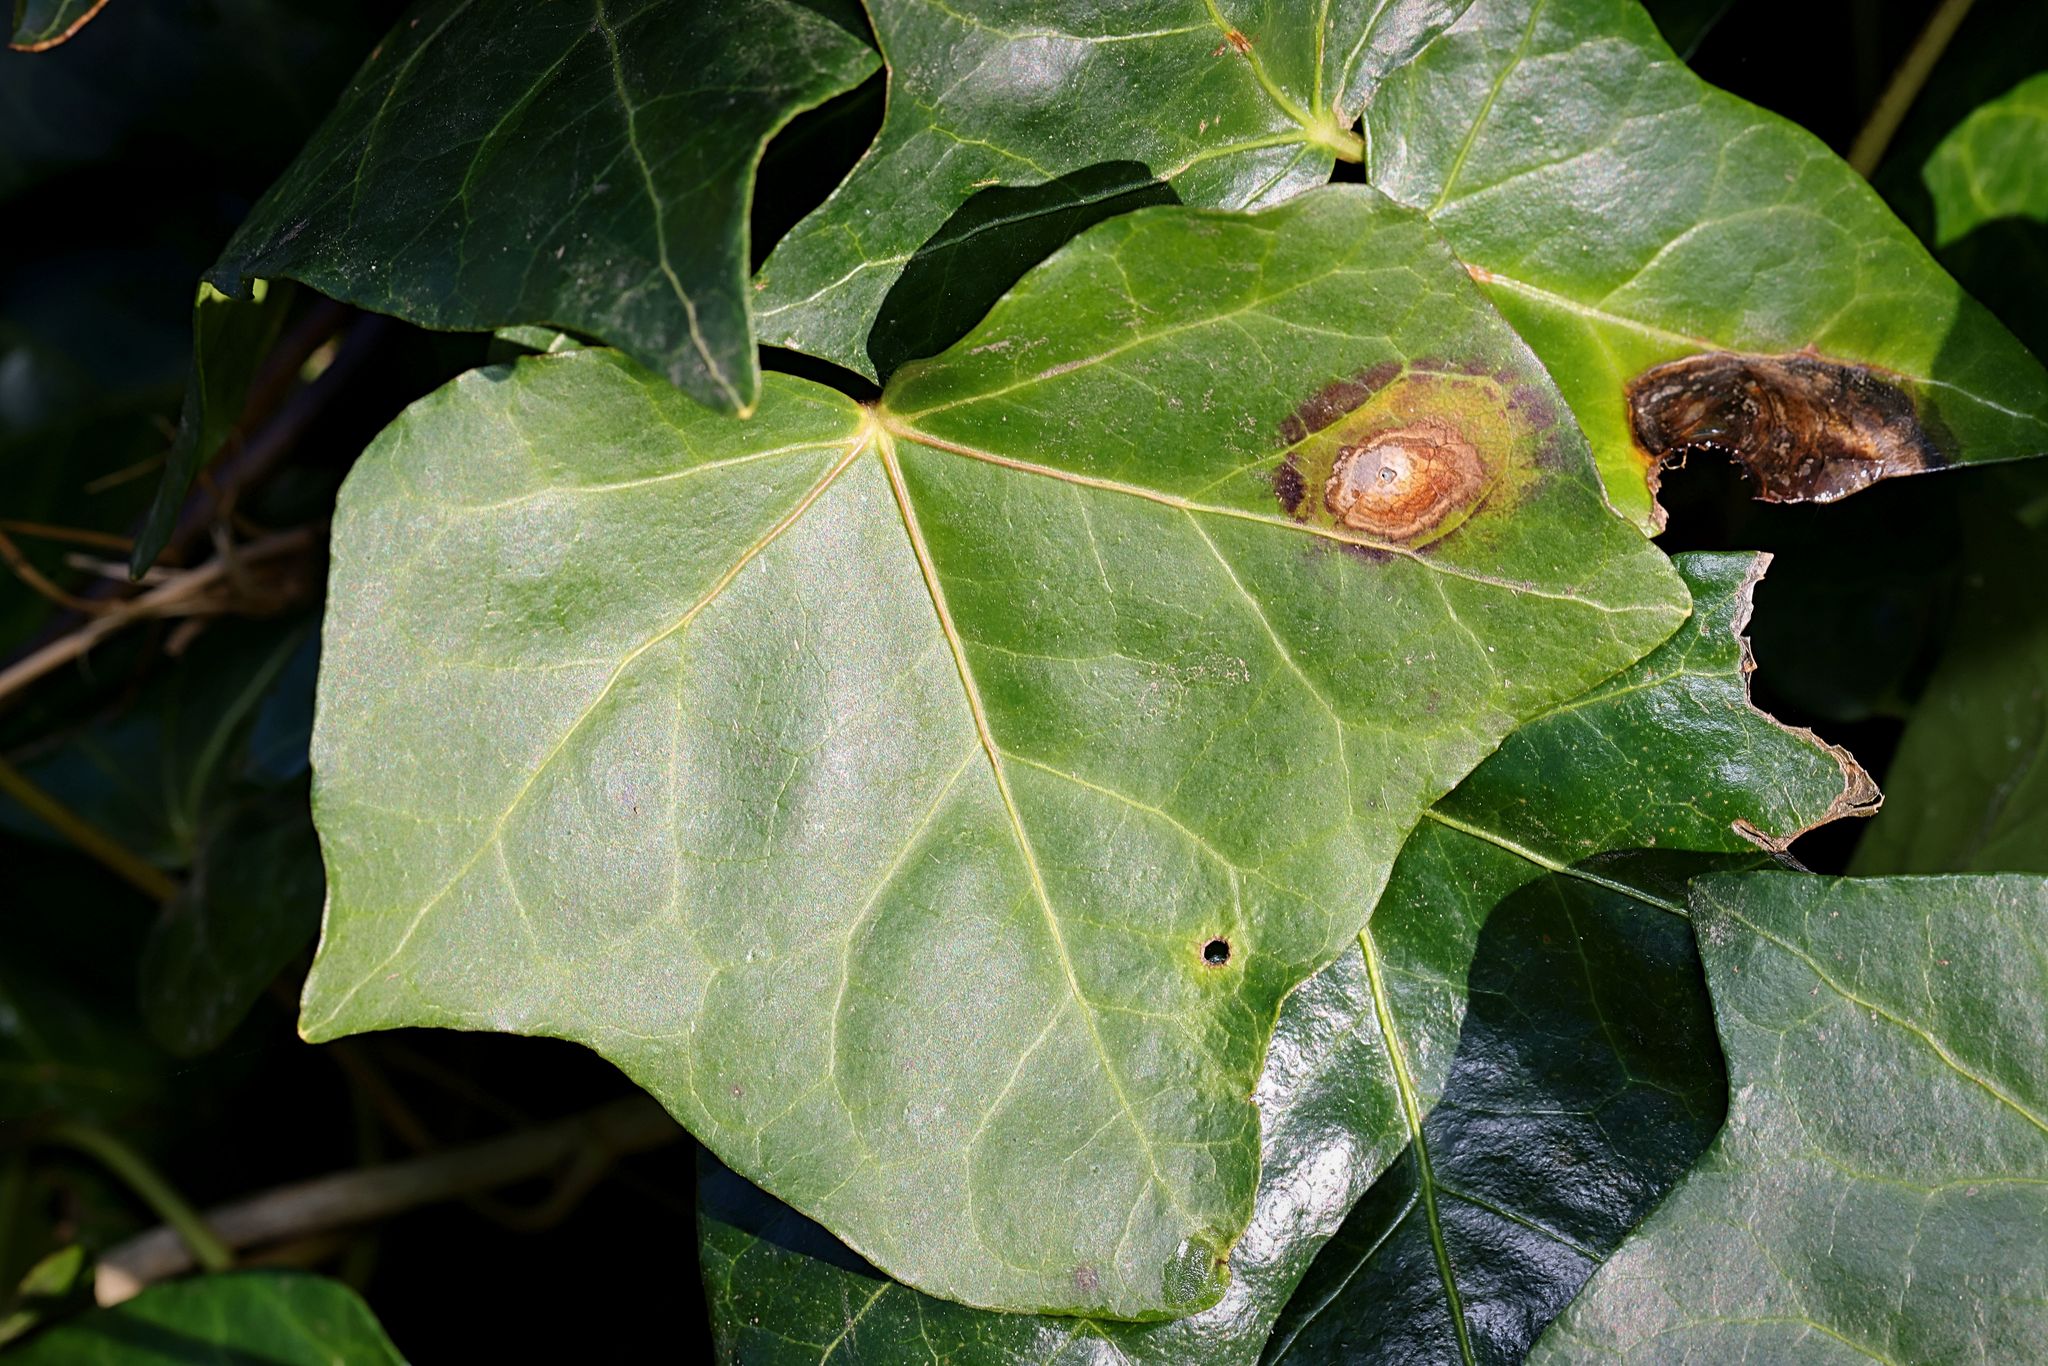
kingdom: Fungi
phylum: Ascomycota
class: Dothideomycetes
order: Pleosporales
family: Didymellaceae
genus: Boeremia
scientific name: Boeremia hedericola
